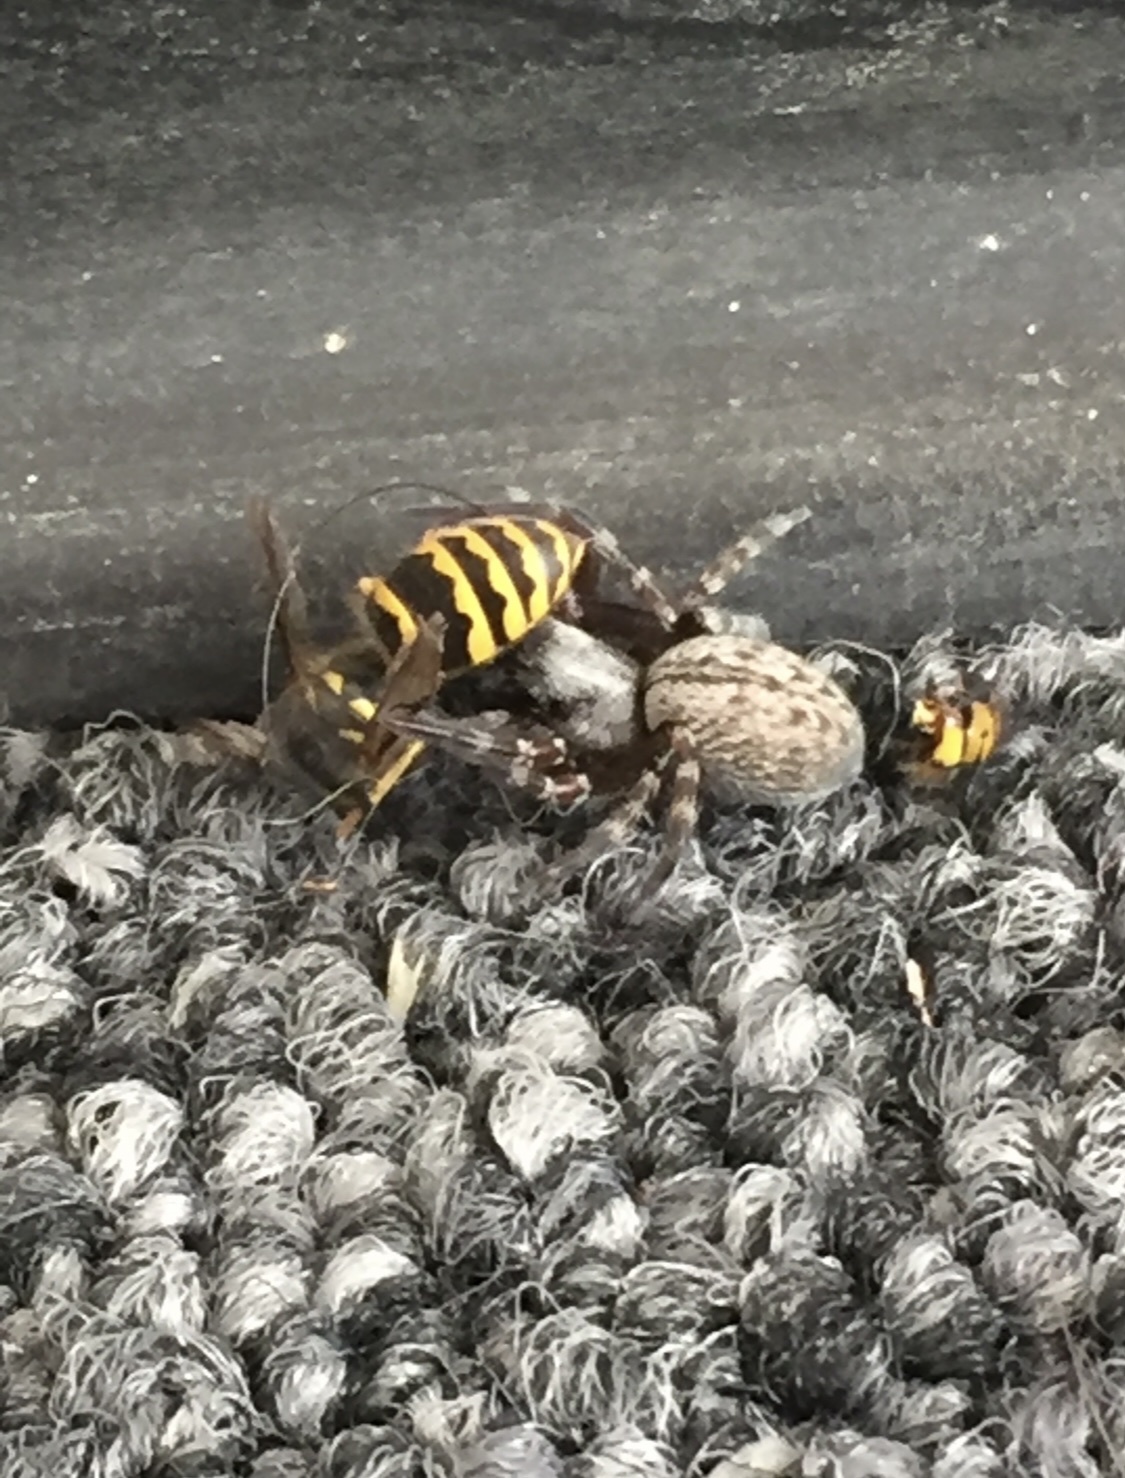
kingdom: Animalia
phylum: Arthropoda
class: Insecta
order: Hymenoptera
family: Vespidae
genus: Vespula
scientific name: Vespula alascensis
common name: Alaska yellowjacket
